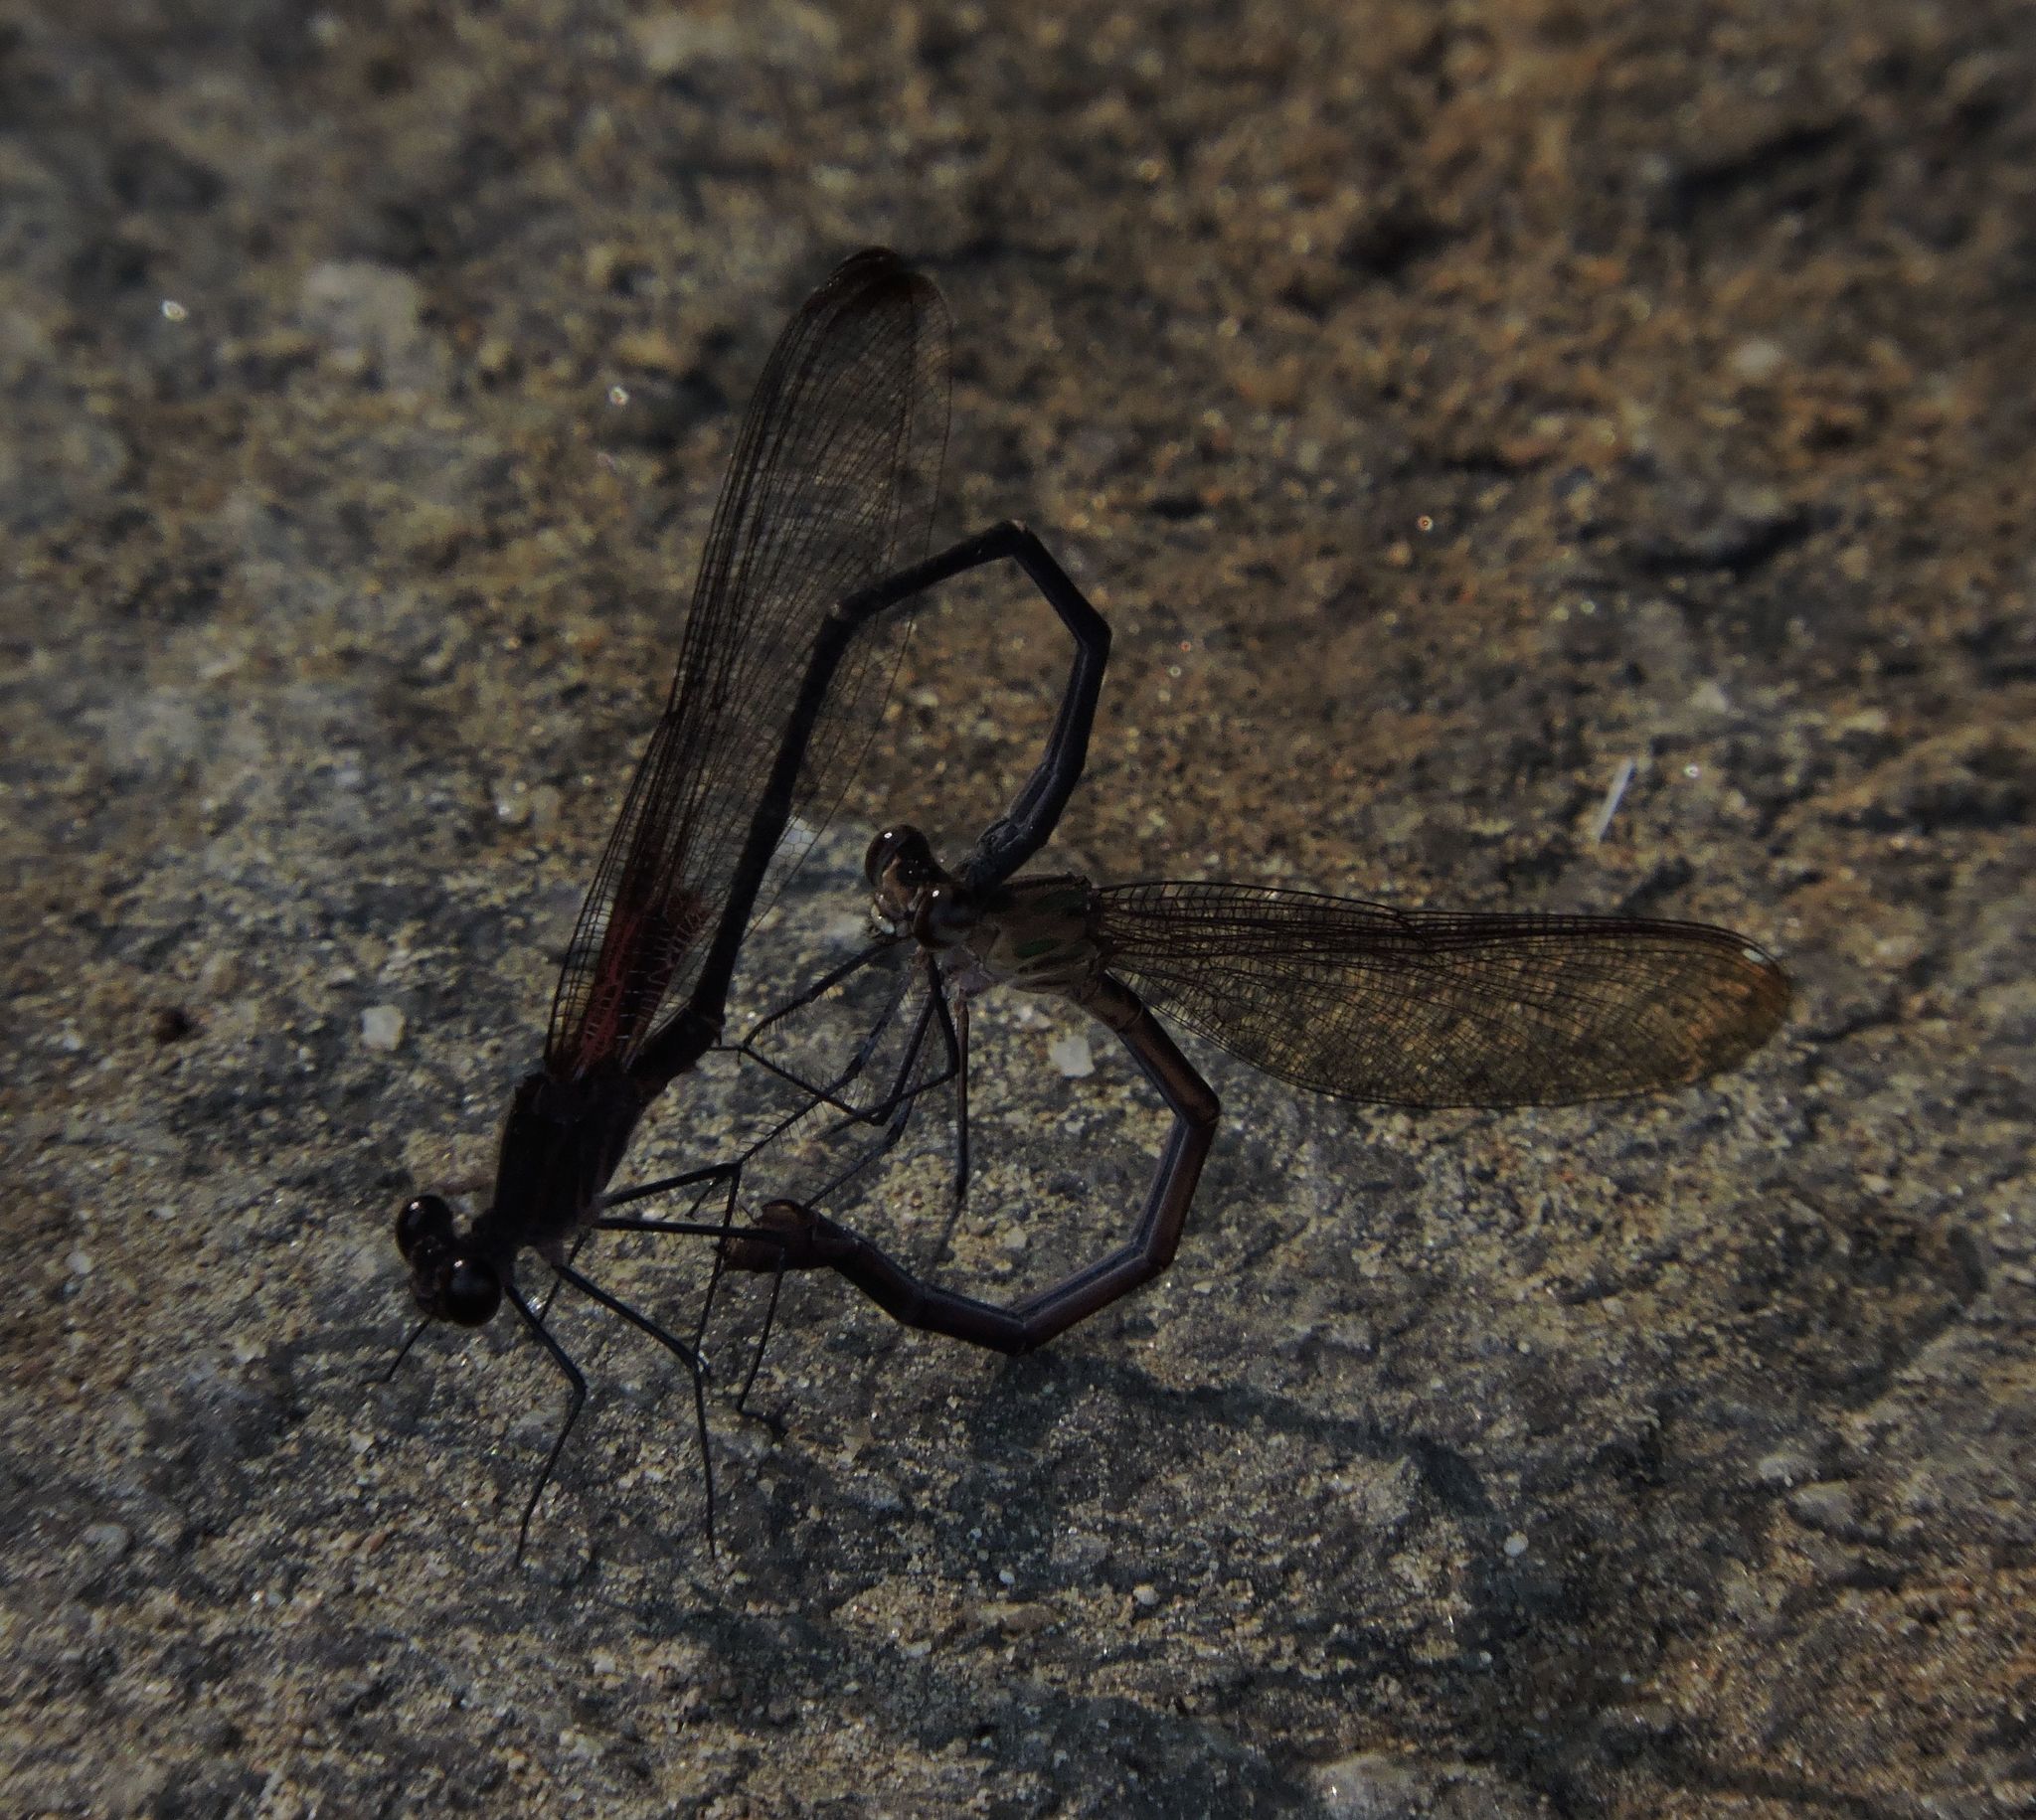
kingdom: Animalia
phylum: Arthropoda
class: Insecta
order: Odonata
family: Calopterygidae
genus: Hetaerina
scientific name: Hetaerina americana
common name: American rubyspot
